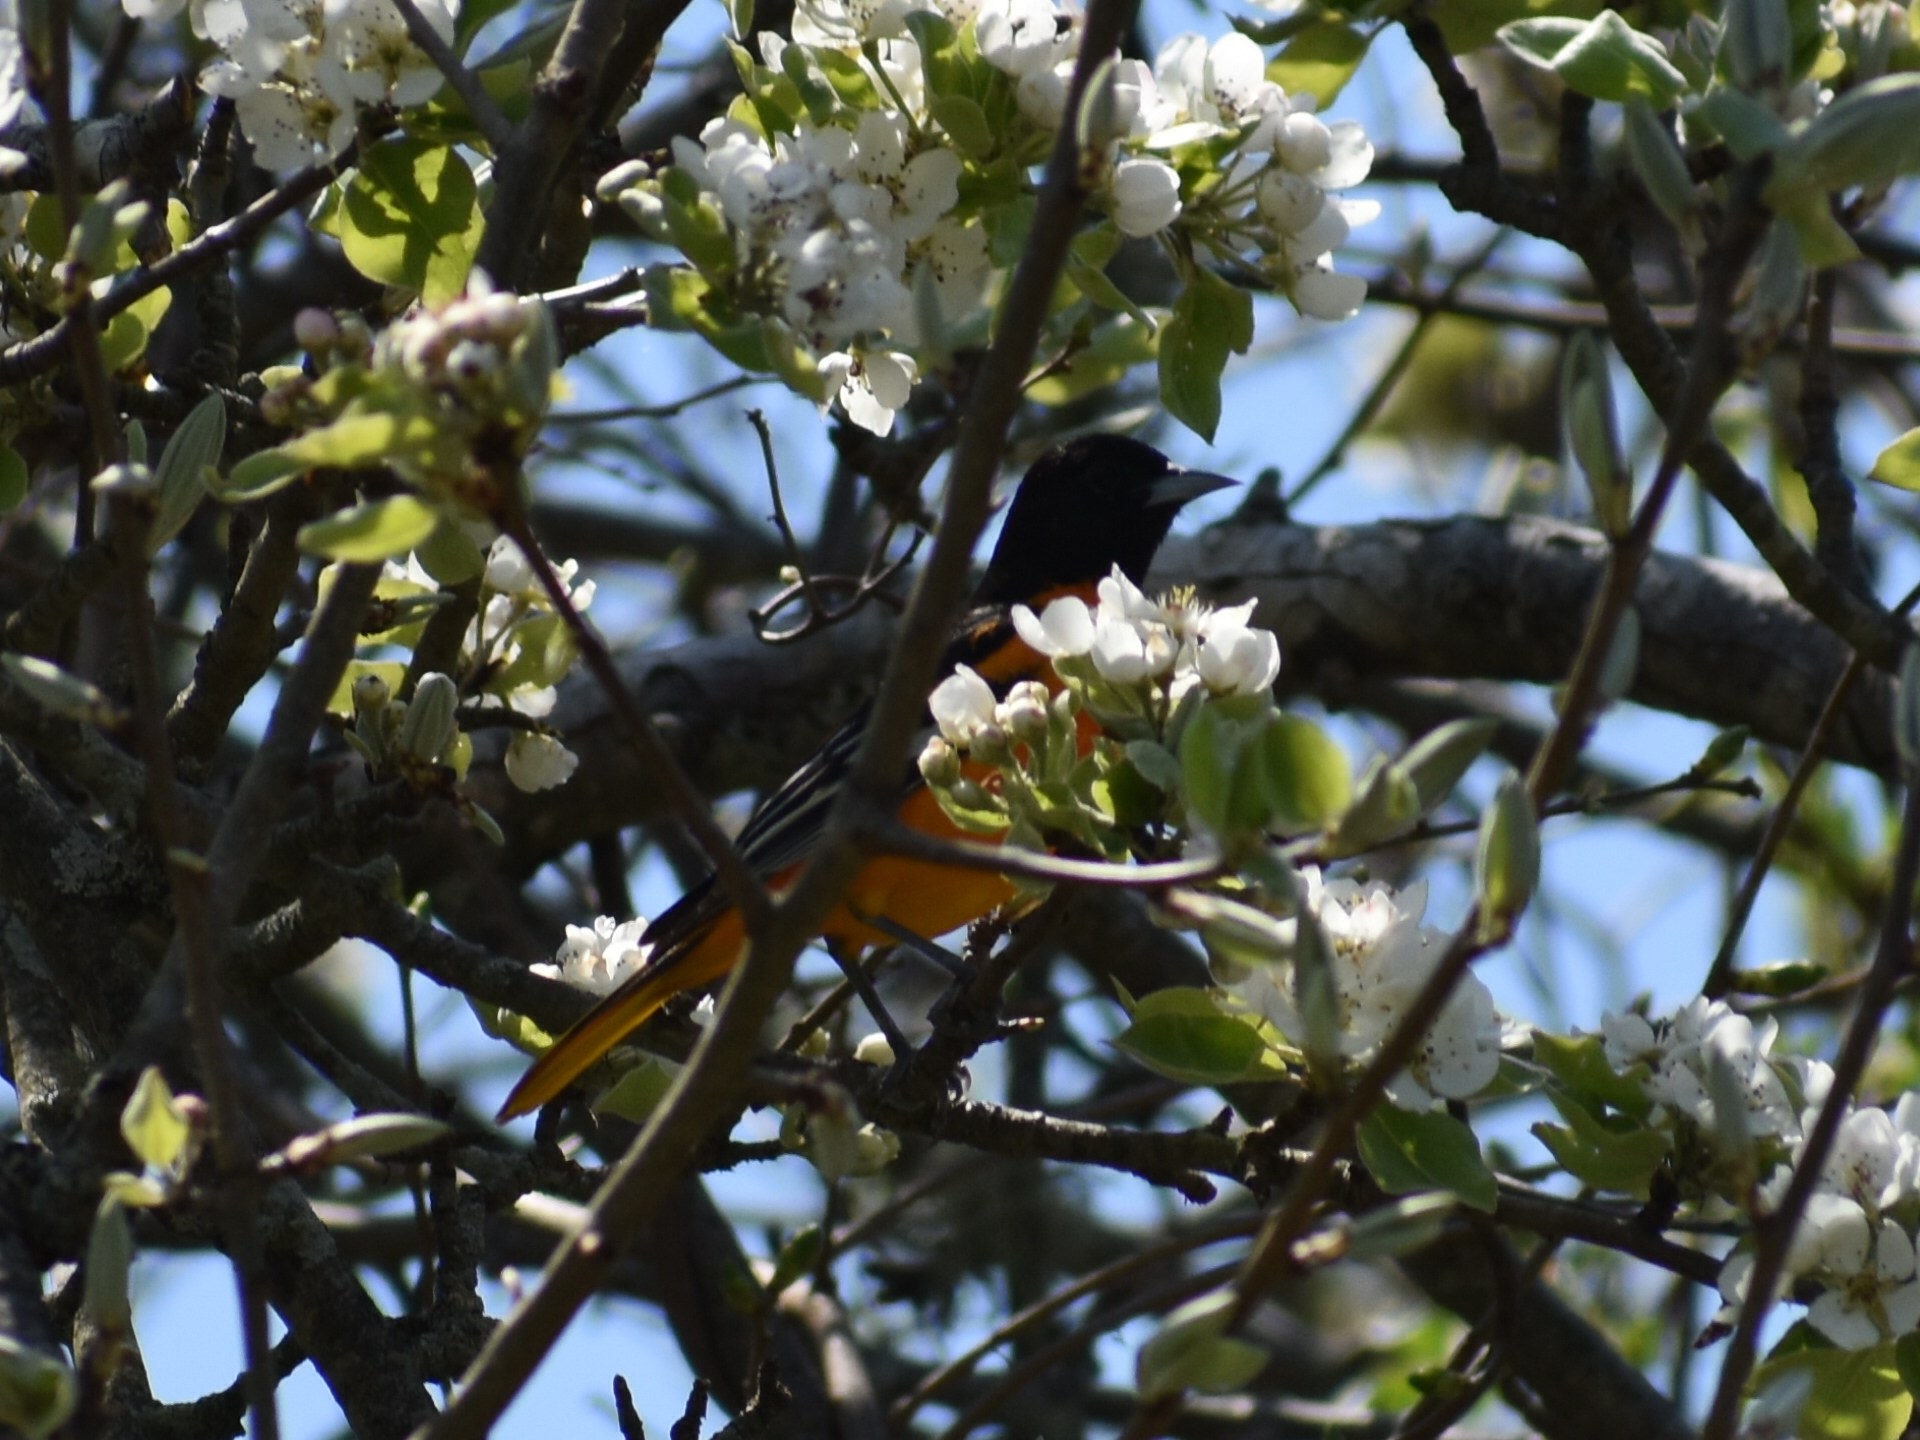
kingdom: Animalia
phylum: Chordata
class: Aves
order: Passeriformes
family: Icteridae
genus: Icterus
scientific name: Icterus galbula
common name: Baltimore oriole
